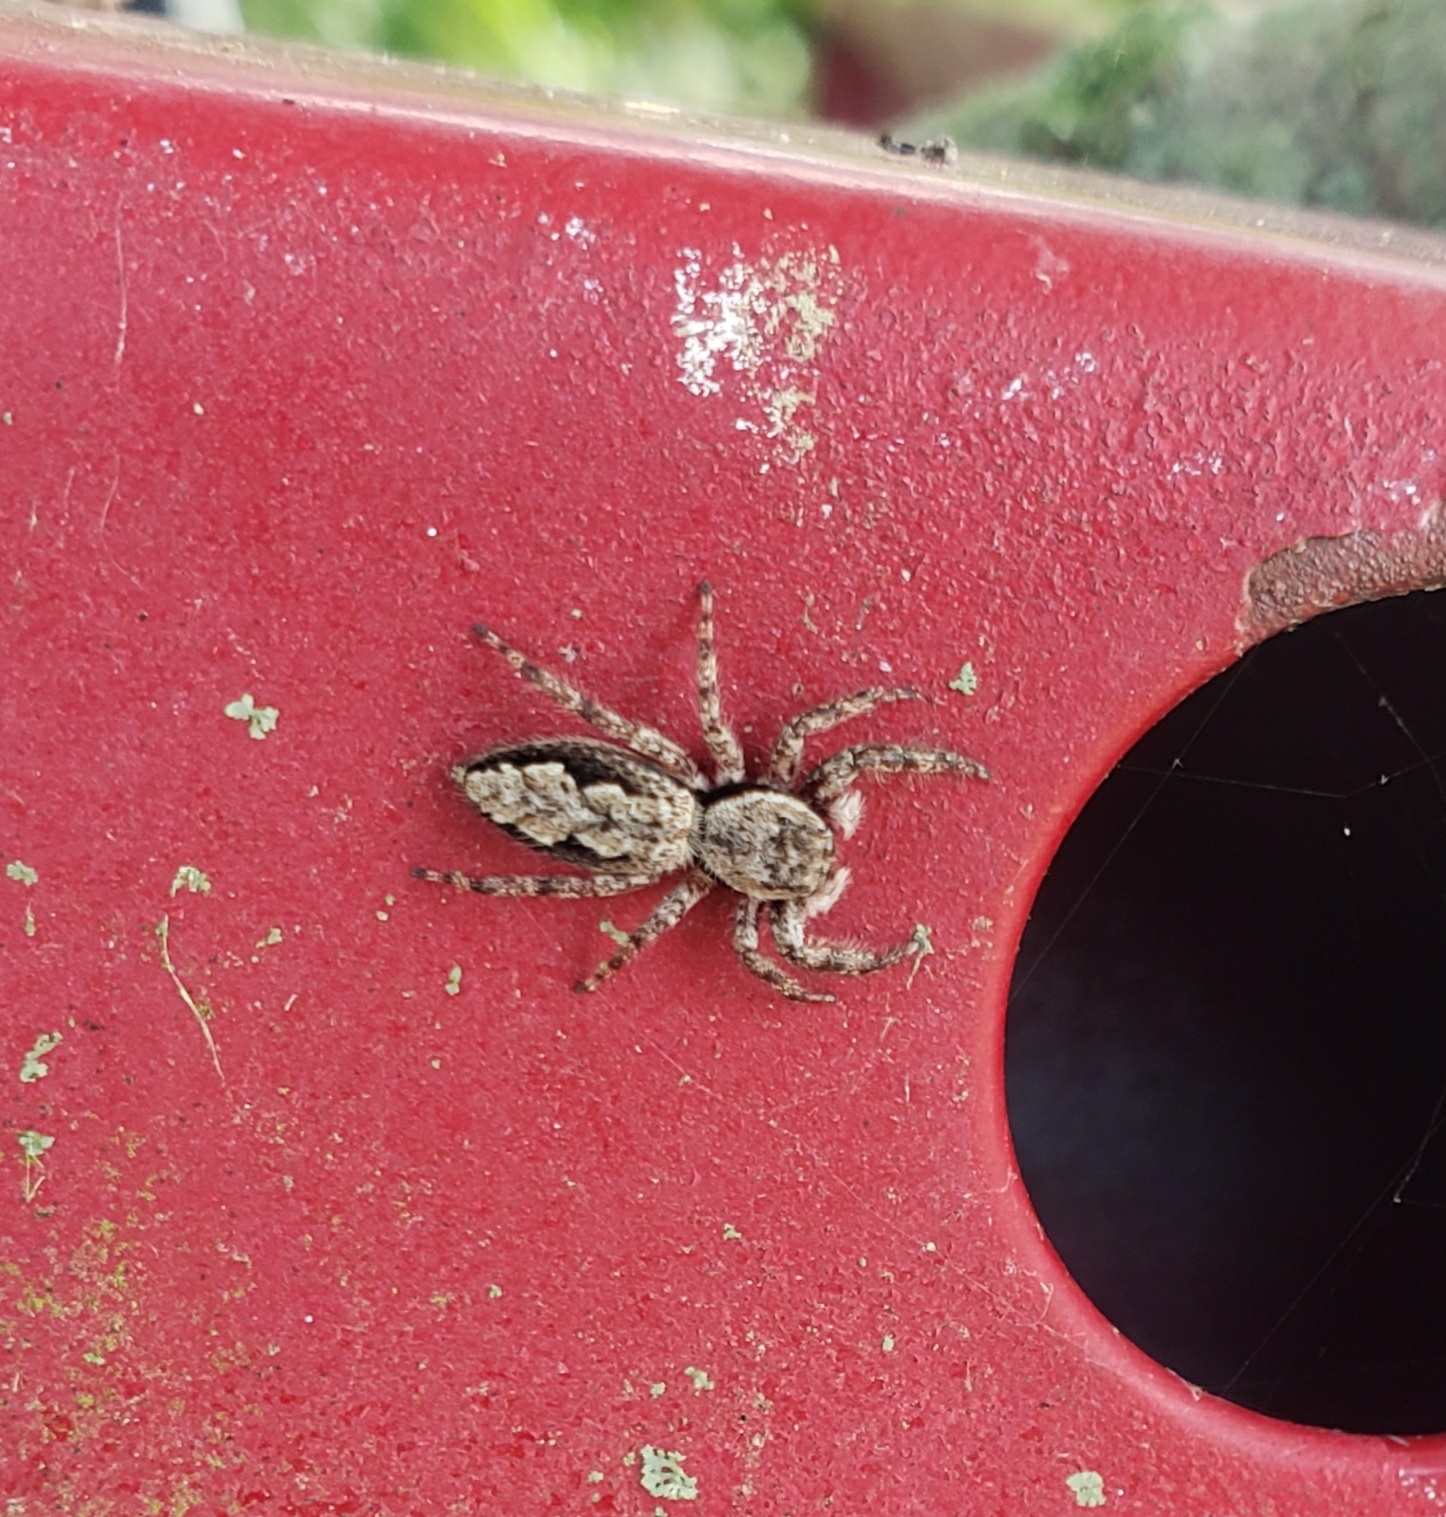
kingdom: Animalia
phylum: Arthropoda
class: Arachnida
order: Araneae
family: Salticidae
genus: Platycryptus
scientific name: Platycryptus undatus
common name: Tan jumping spider
